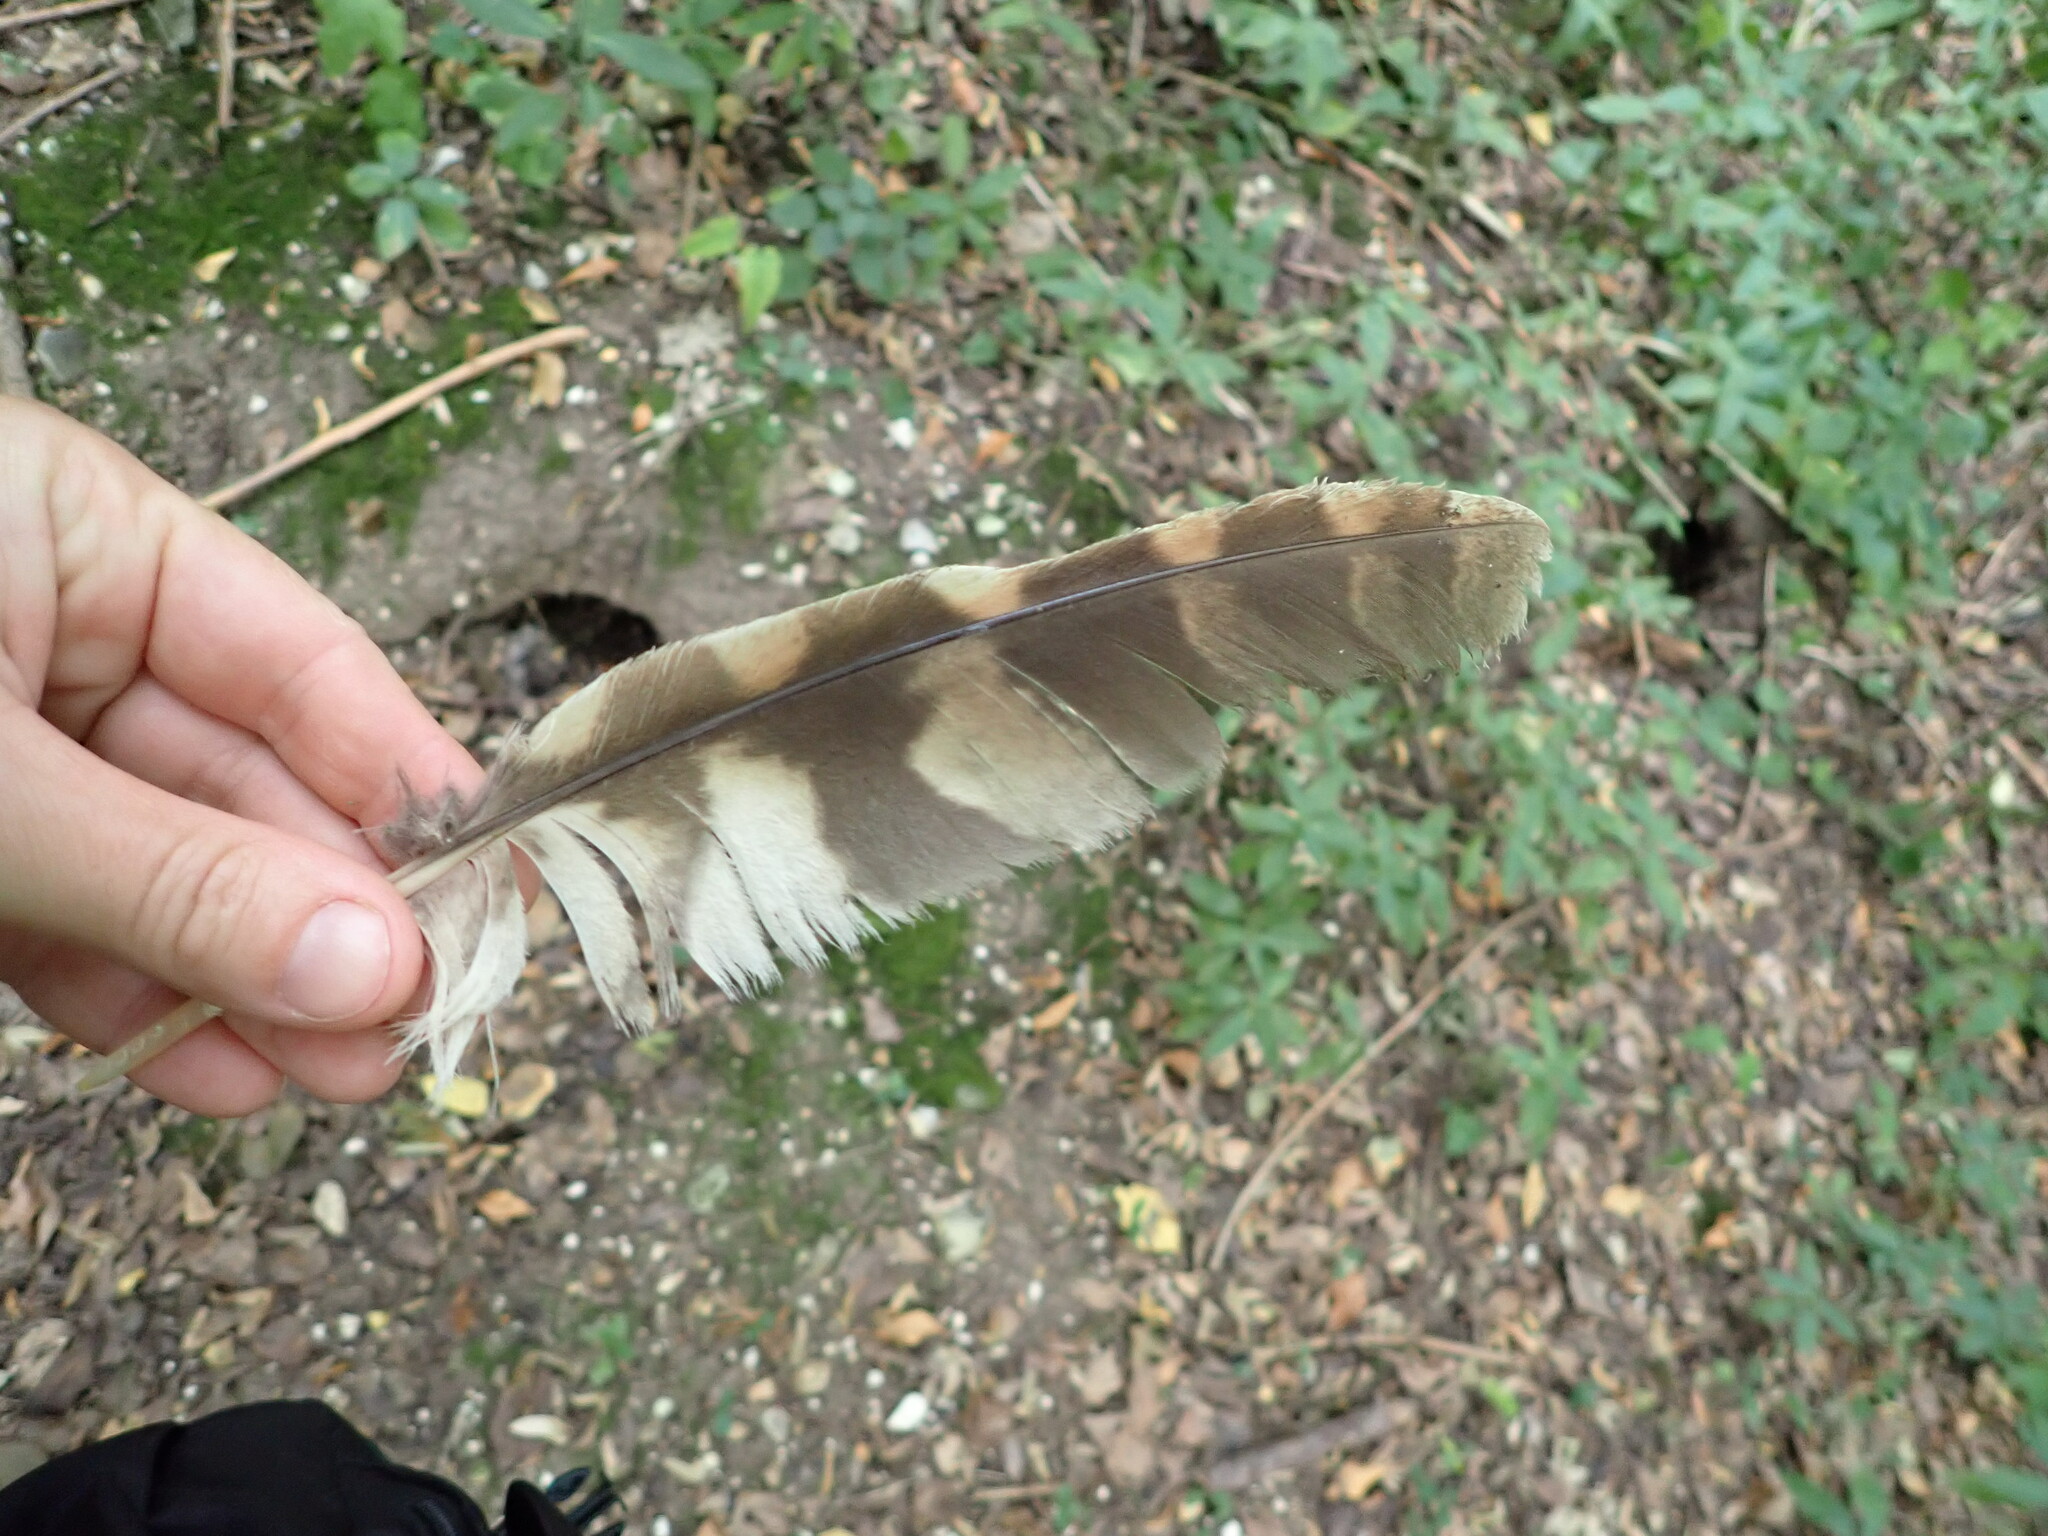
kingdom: Animalia
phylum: Chordata
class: Aves
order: Strigiformes
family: Strigidae
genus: Strix
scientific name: Strix aluco
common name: Tawny owl
